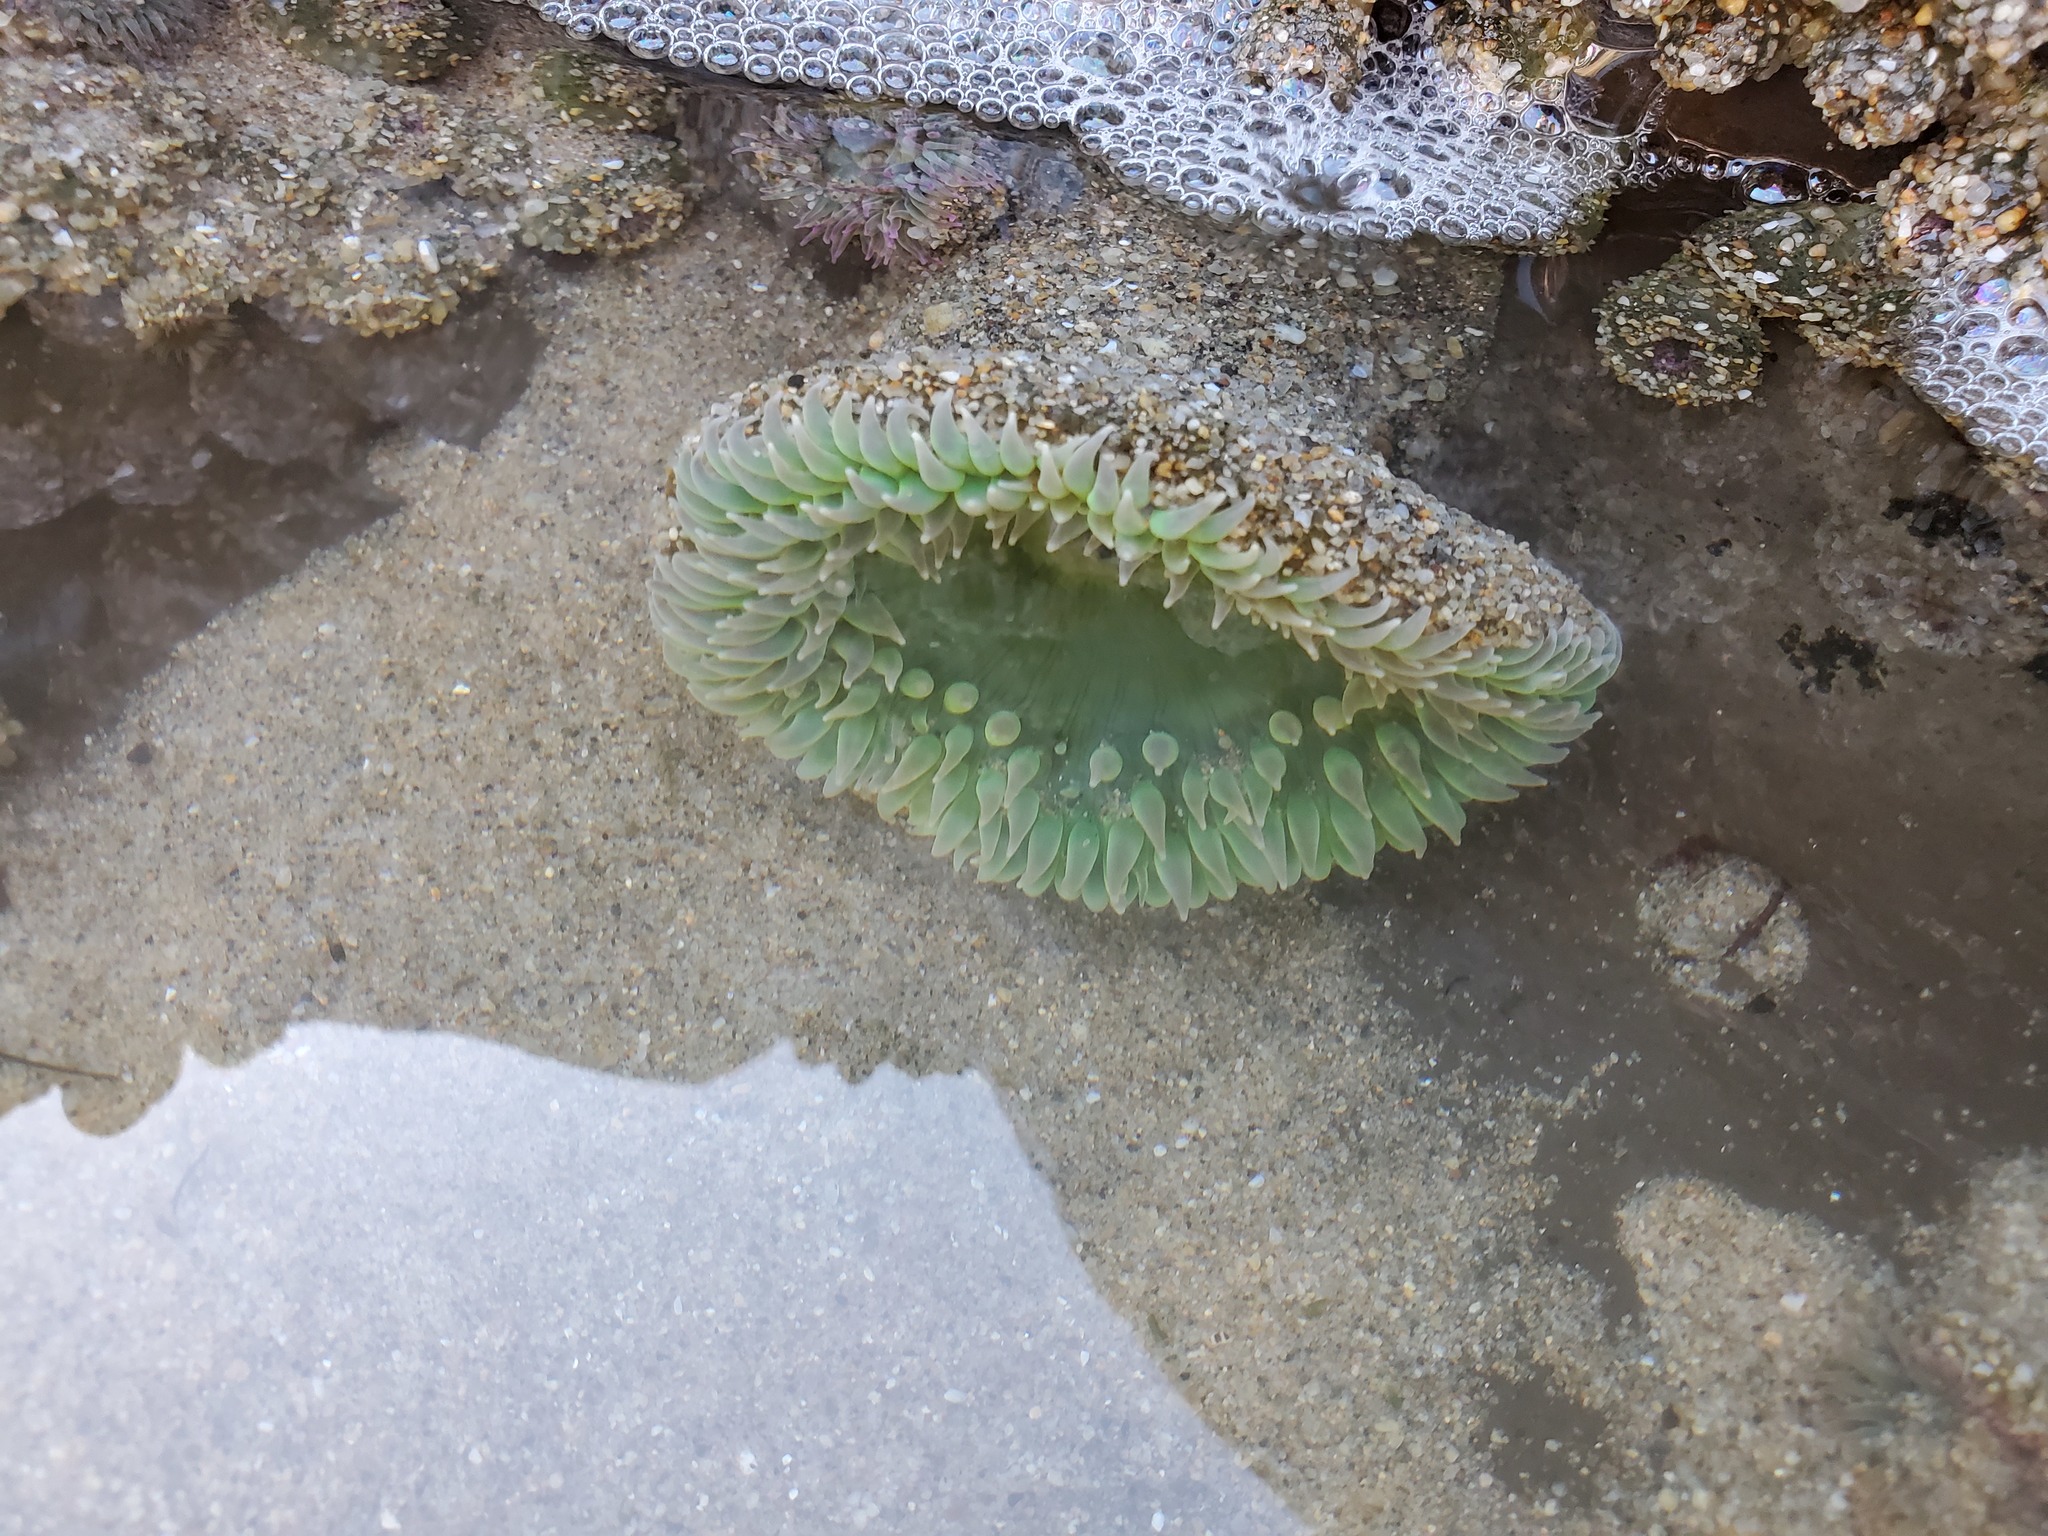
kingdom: Animalia
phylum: Cnidaria
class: Anthozoa
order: Actiniaria
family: Actiniidae
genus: Anthopleura
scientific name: Anthopleura xanthogrammica
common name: Giant green anemone
